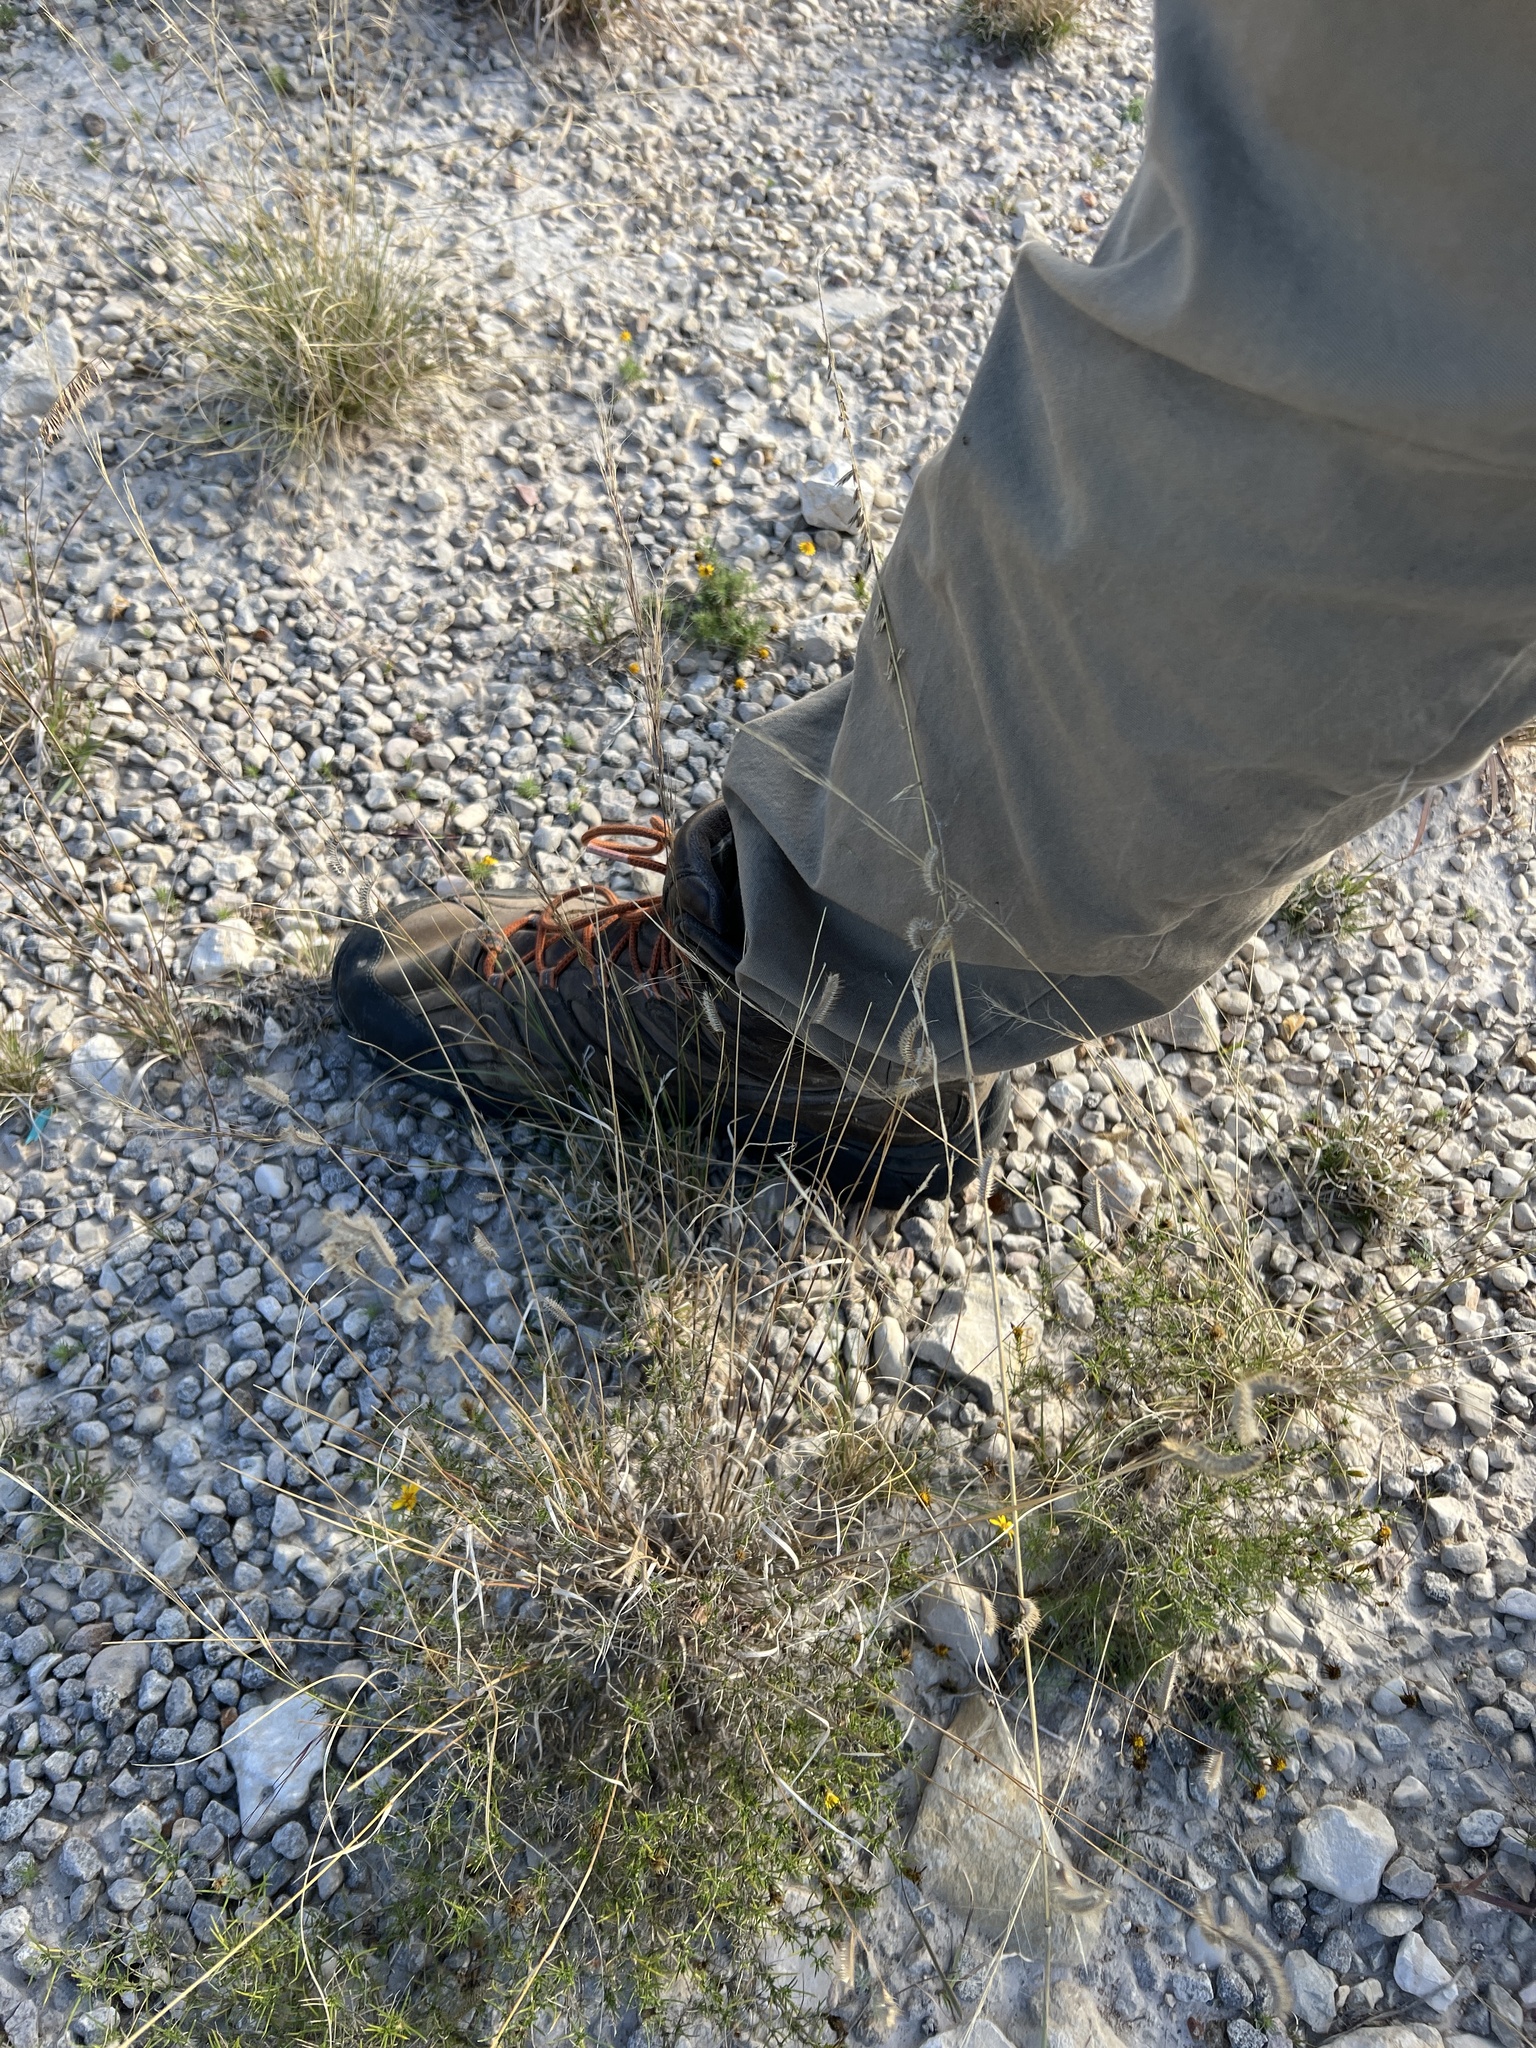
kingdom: Plantae
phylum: Tracheophyta
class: Liliopsida
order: Poales
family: Poaceae
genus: Bouteloua
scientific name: Bouteloua hirsuta
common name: Hairy grama
